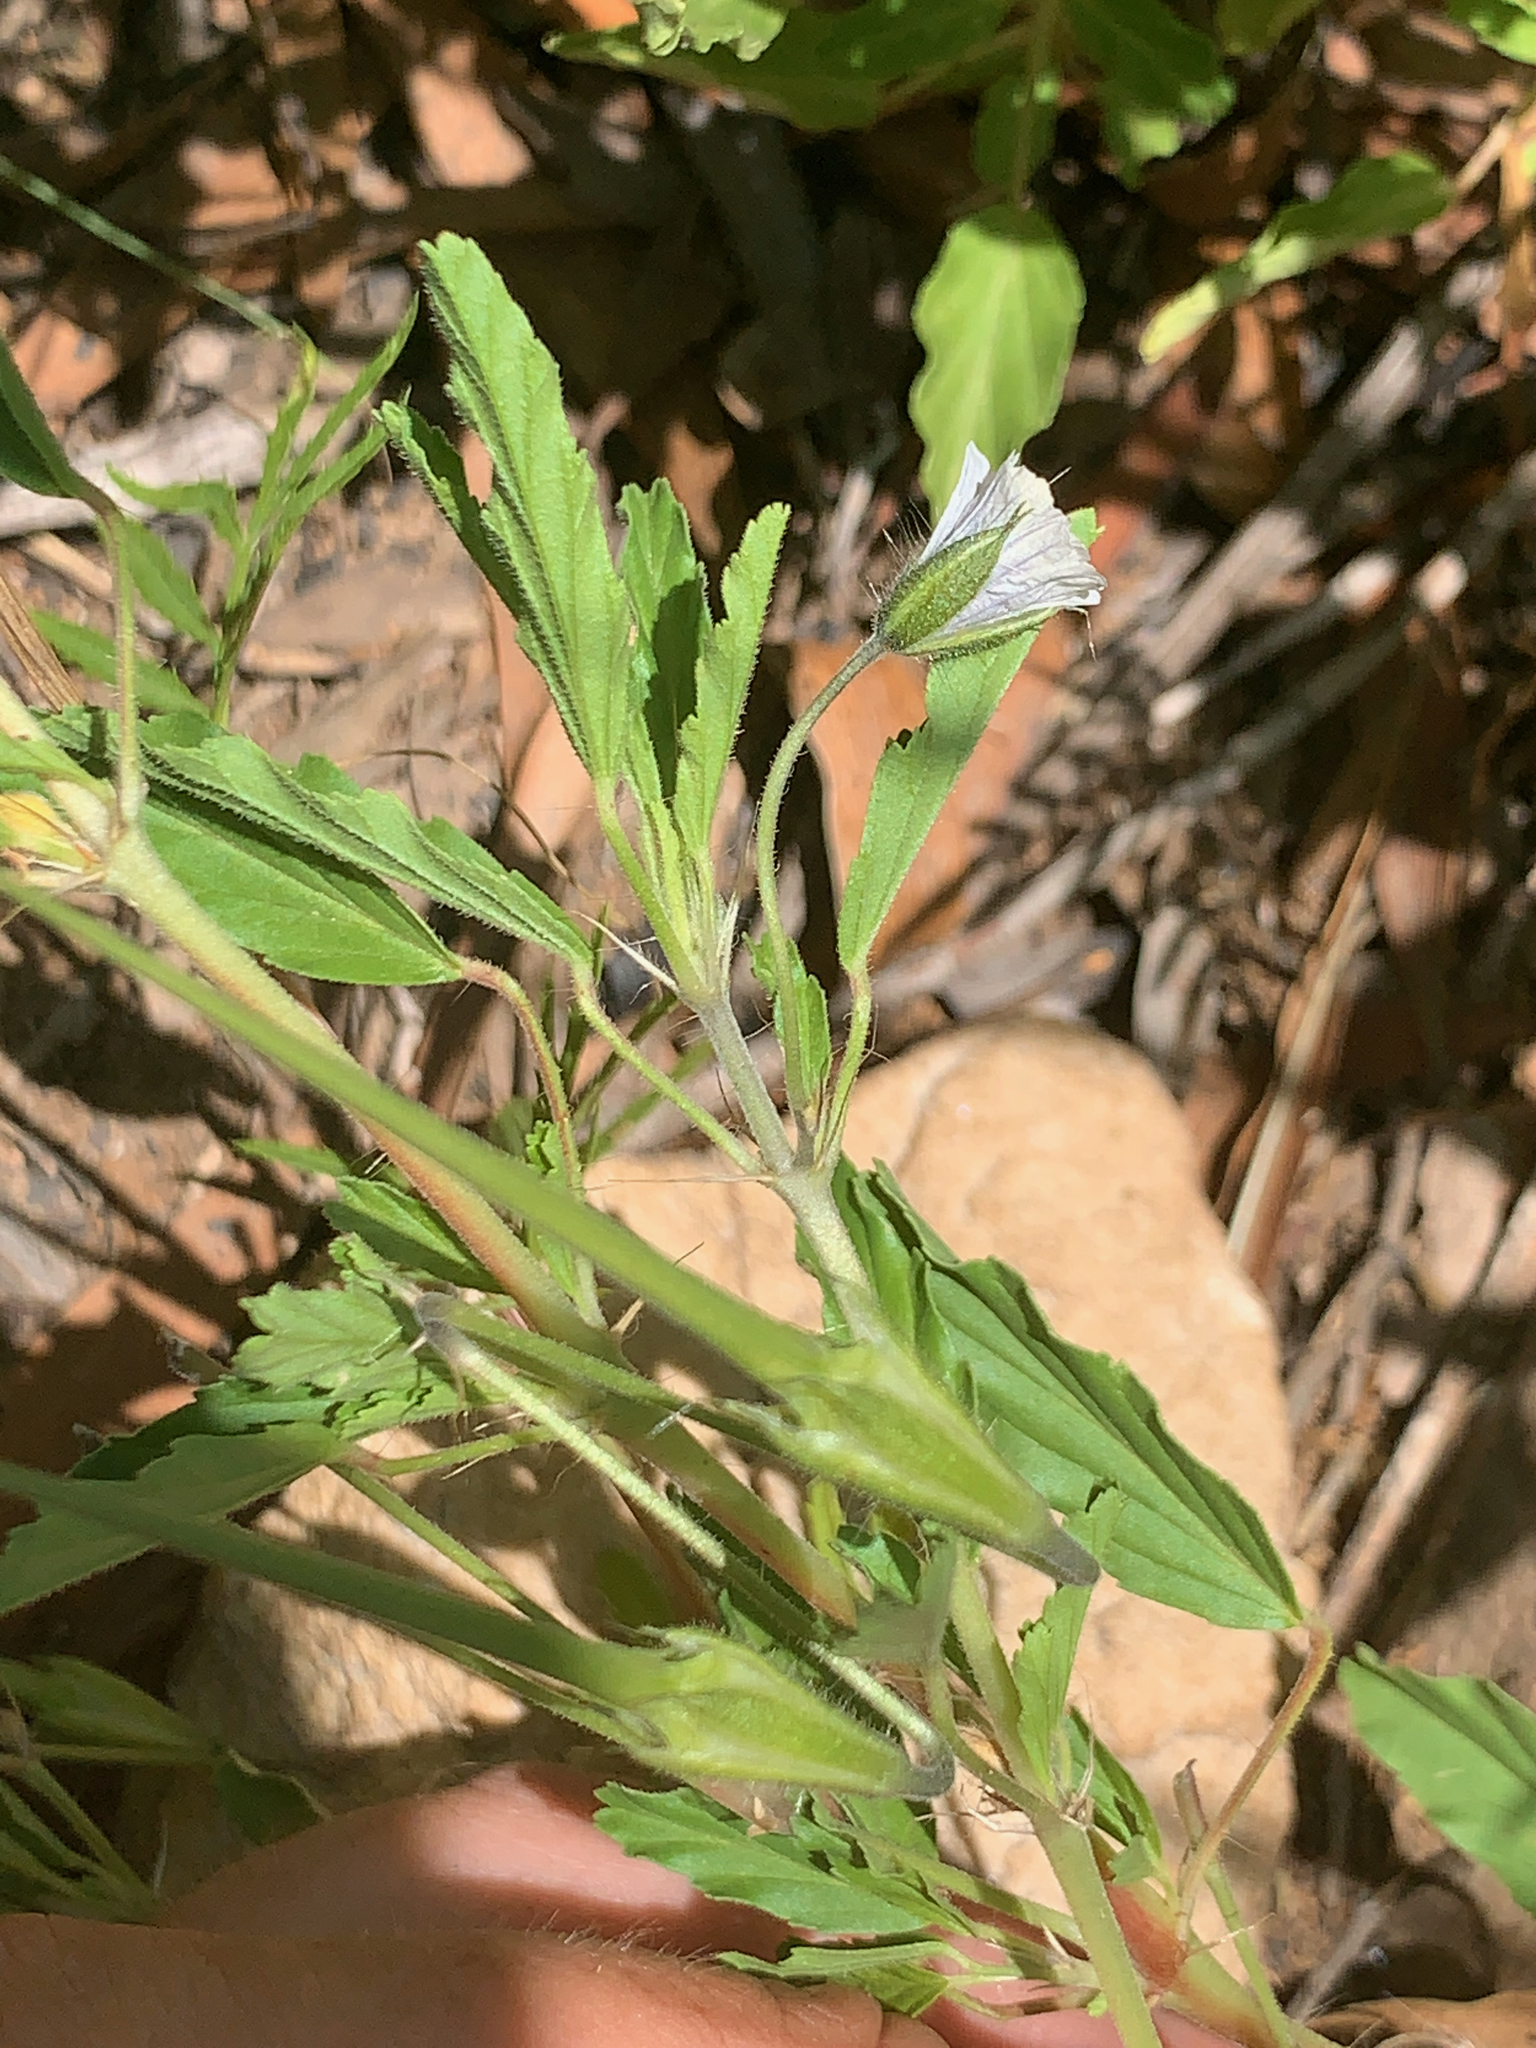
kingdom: Plantae
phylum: Tracheophyta
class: Magnoliopsida
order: Geraniales
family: Geraniaceae
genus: Monsonia
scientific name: Monsonia angustifolia
